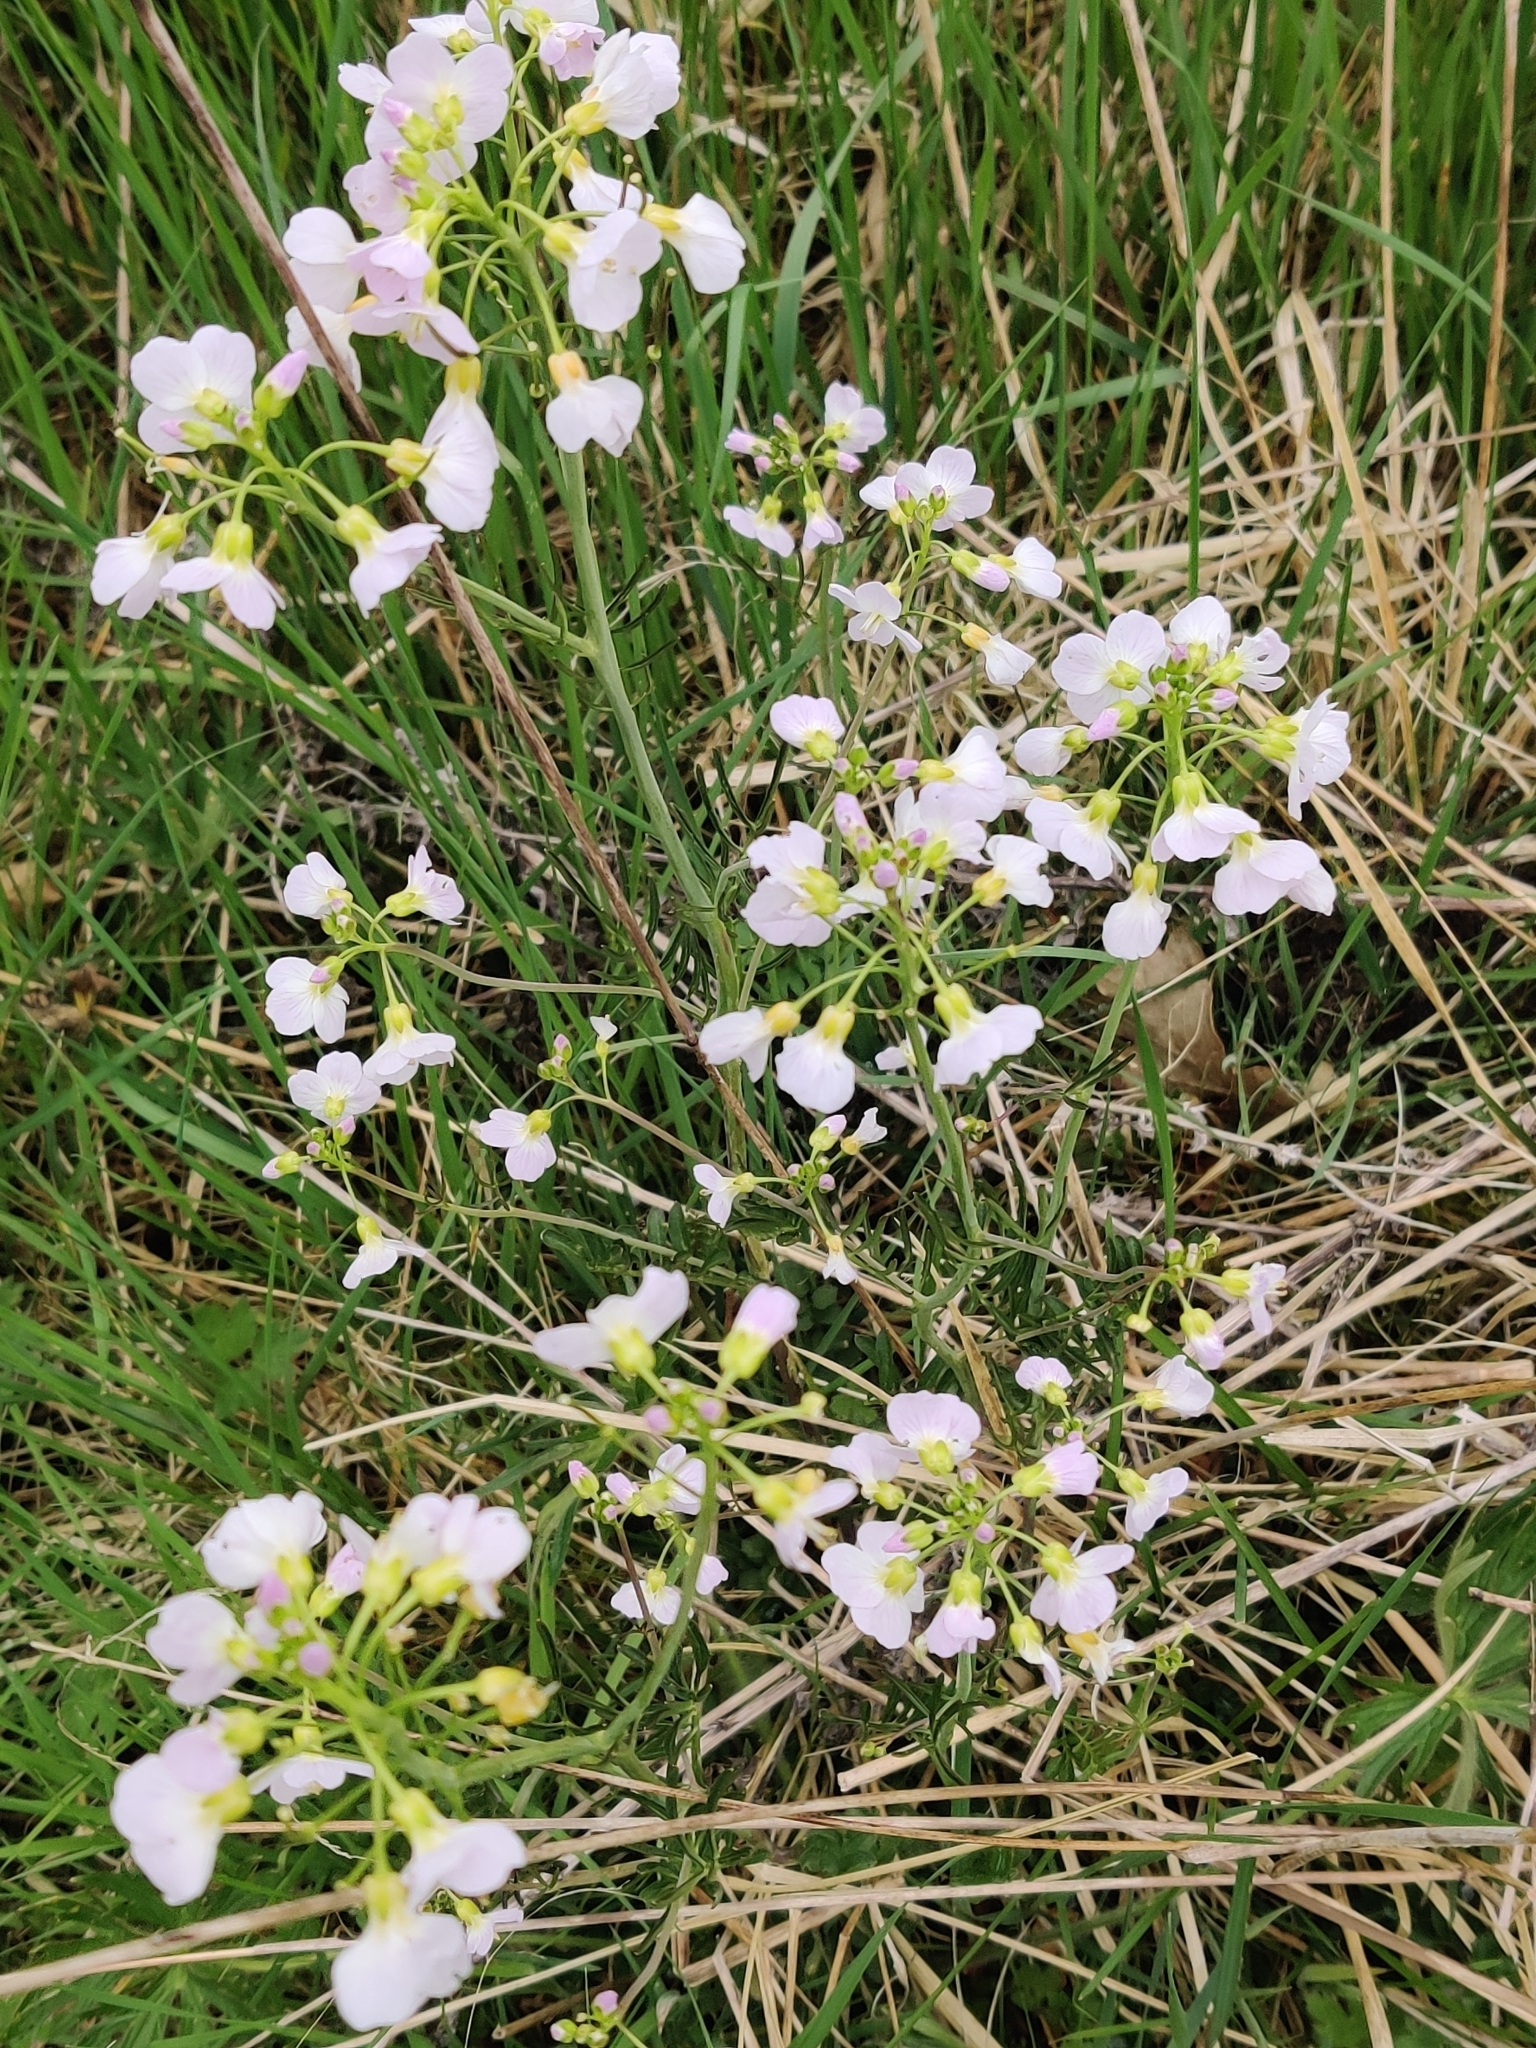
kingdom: Plantae
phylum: Tracheophyta
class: Magnoliopsida
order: Brassicales
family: Brassicaceae
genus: Cardamine
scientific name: Cardamine pratensis
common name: Cuckoo flower
